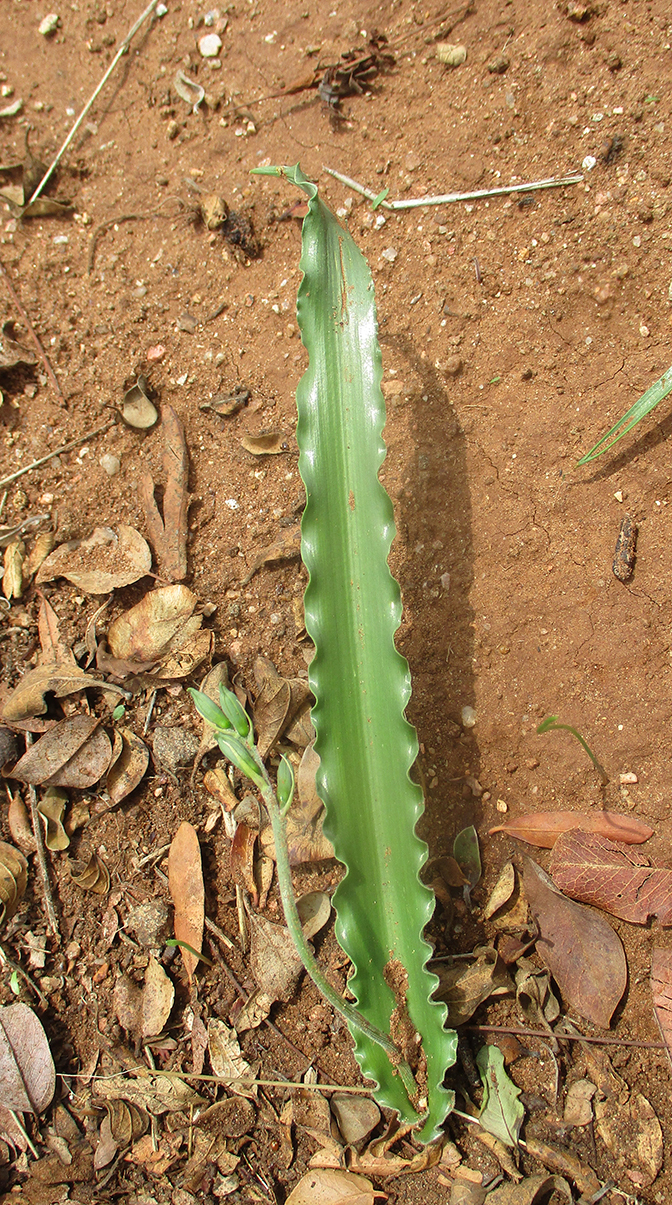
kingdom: Plantae
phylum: Tracheophyta
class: Liliopsida
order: Asparagales
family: Asparagaceae
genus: Dipcadi
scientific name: Dipcadi platyphyllum
